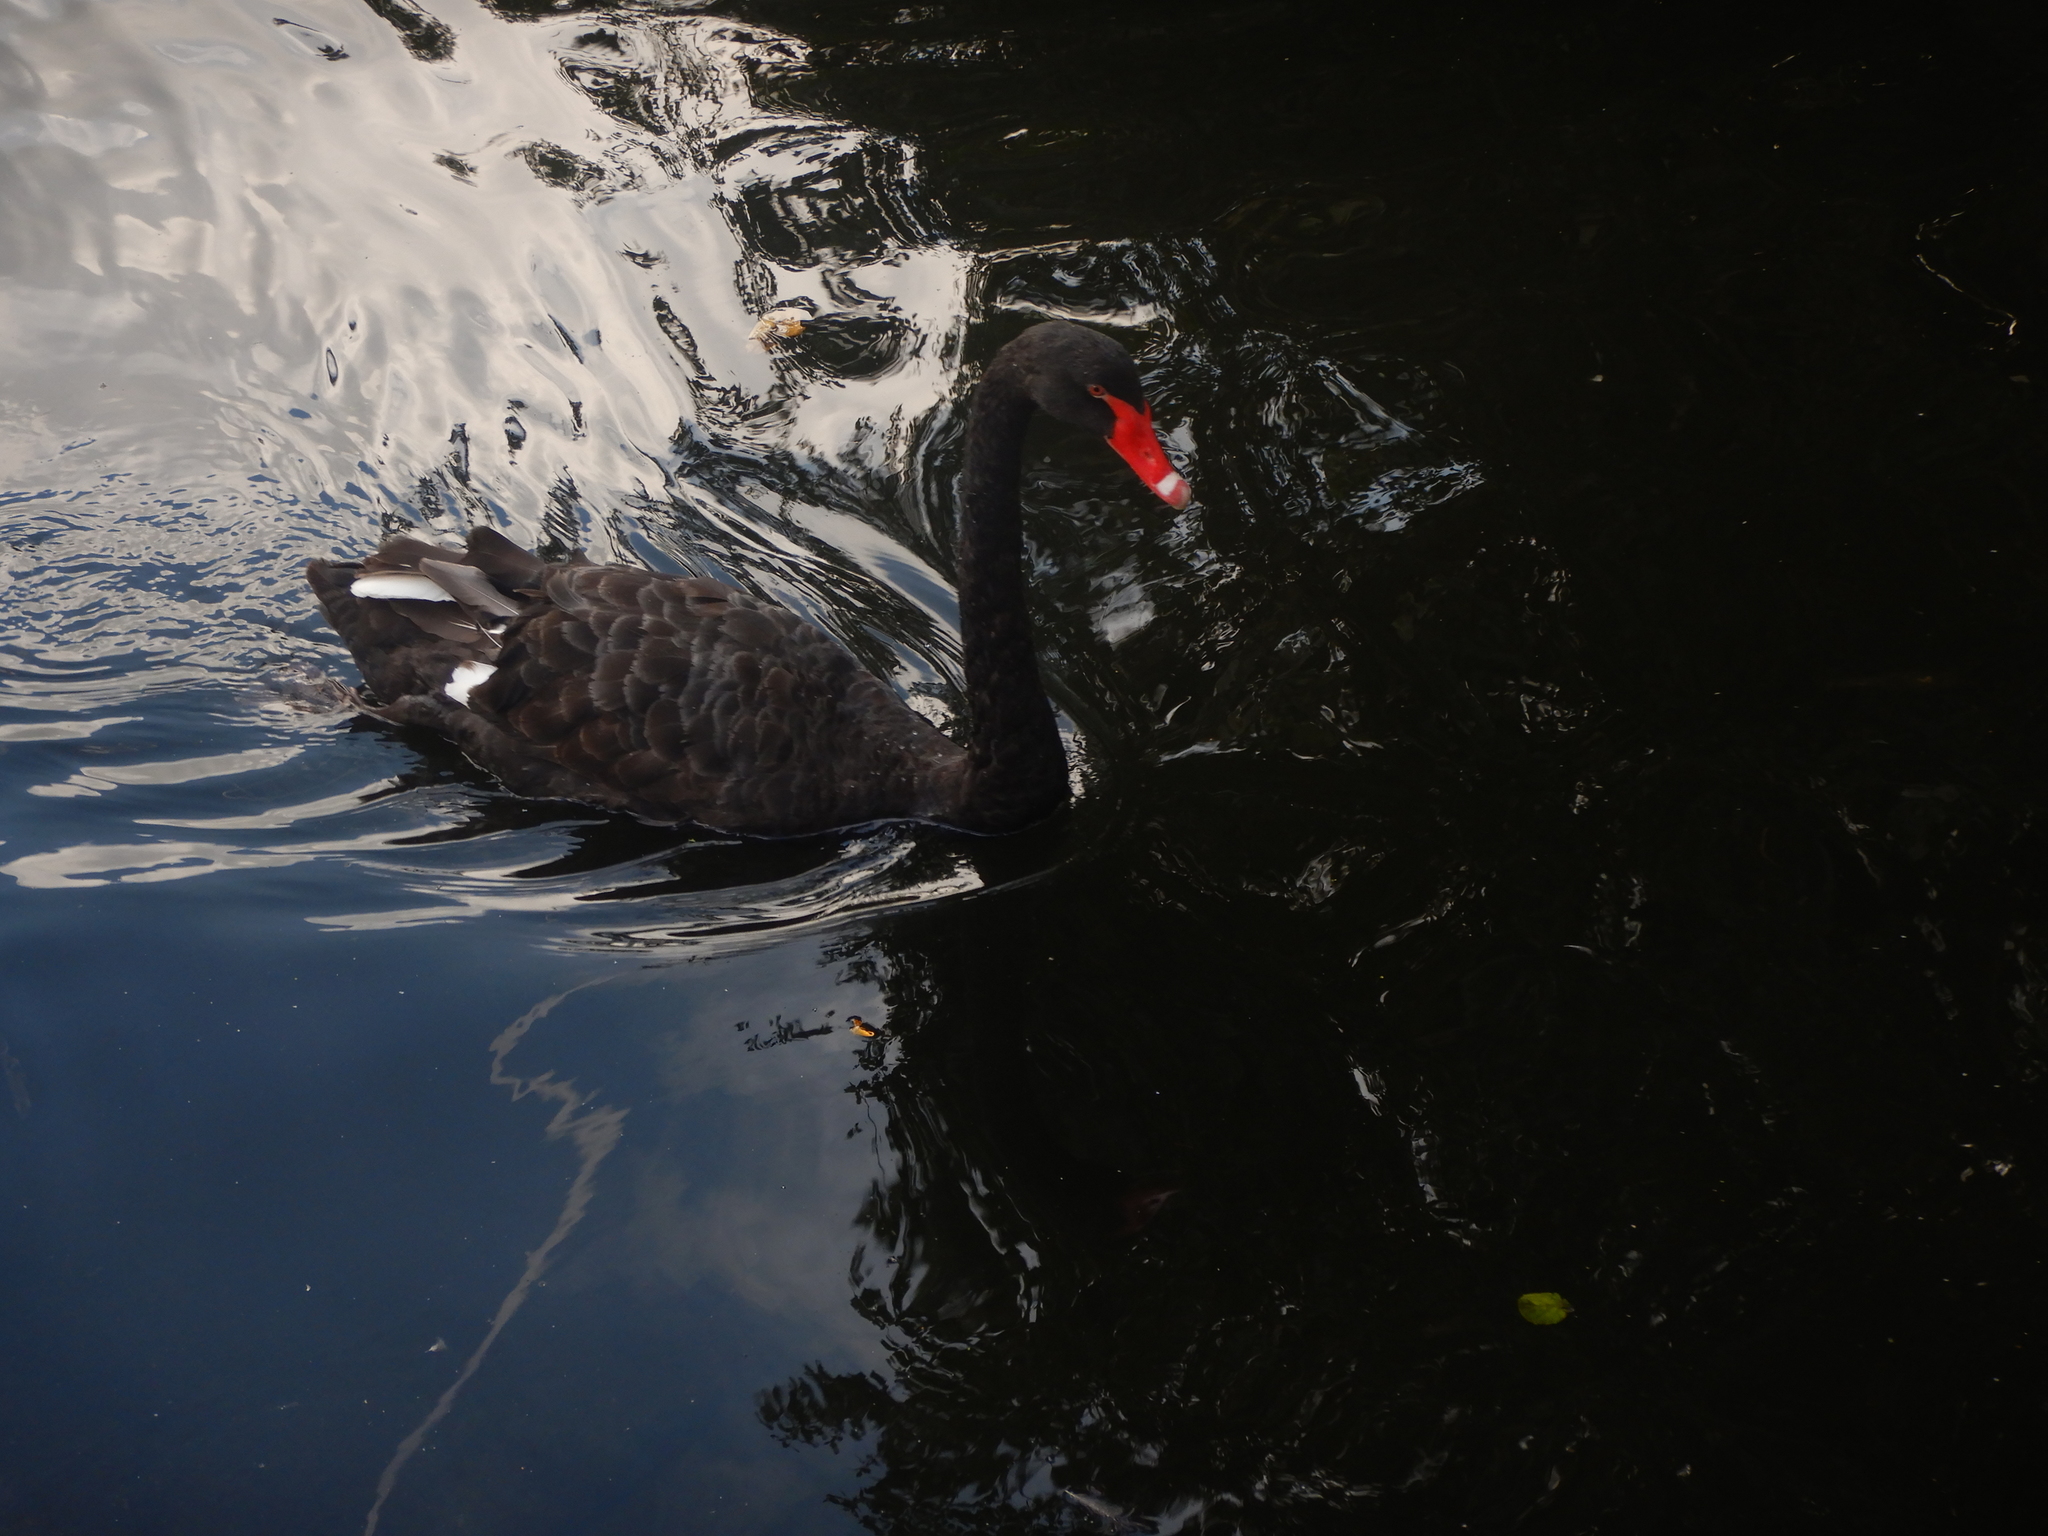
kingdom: Animalia
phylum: Chordata
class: Aves
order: Anseriformes
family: Anatidae
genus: Cygnus
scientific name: Cygnus atratus
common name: Black swan
